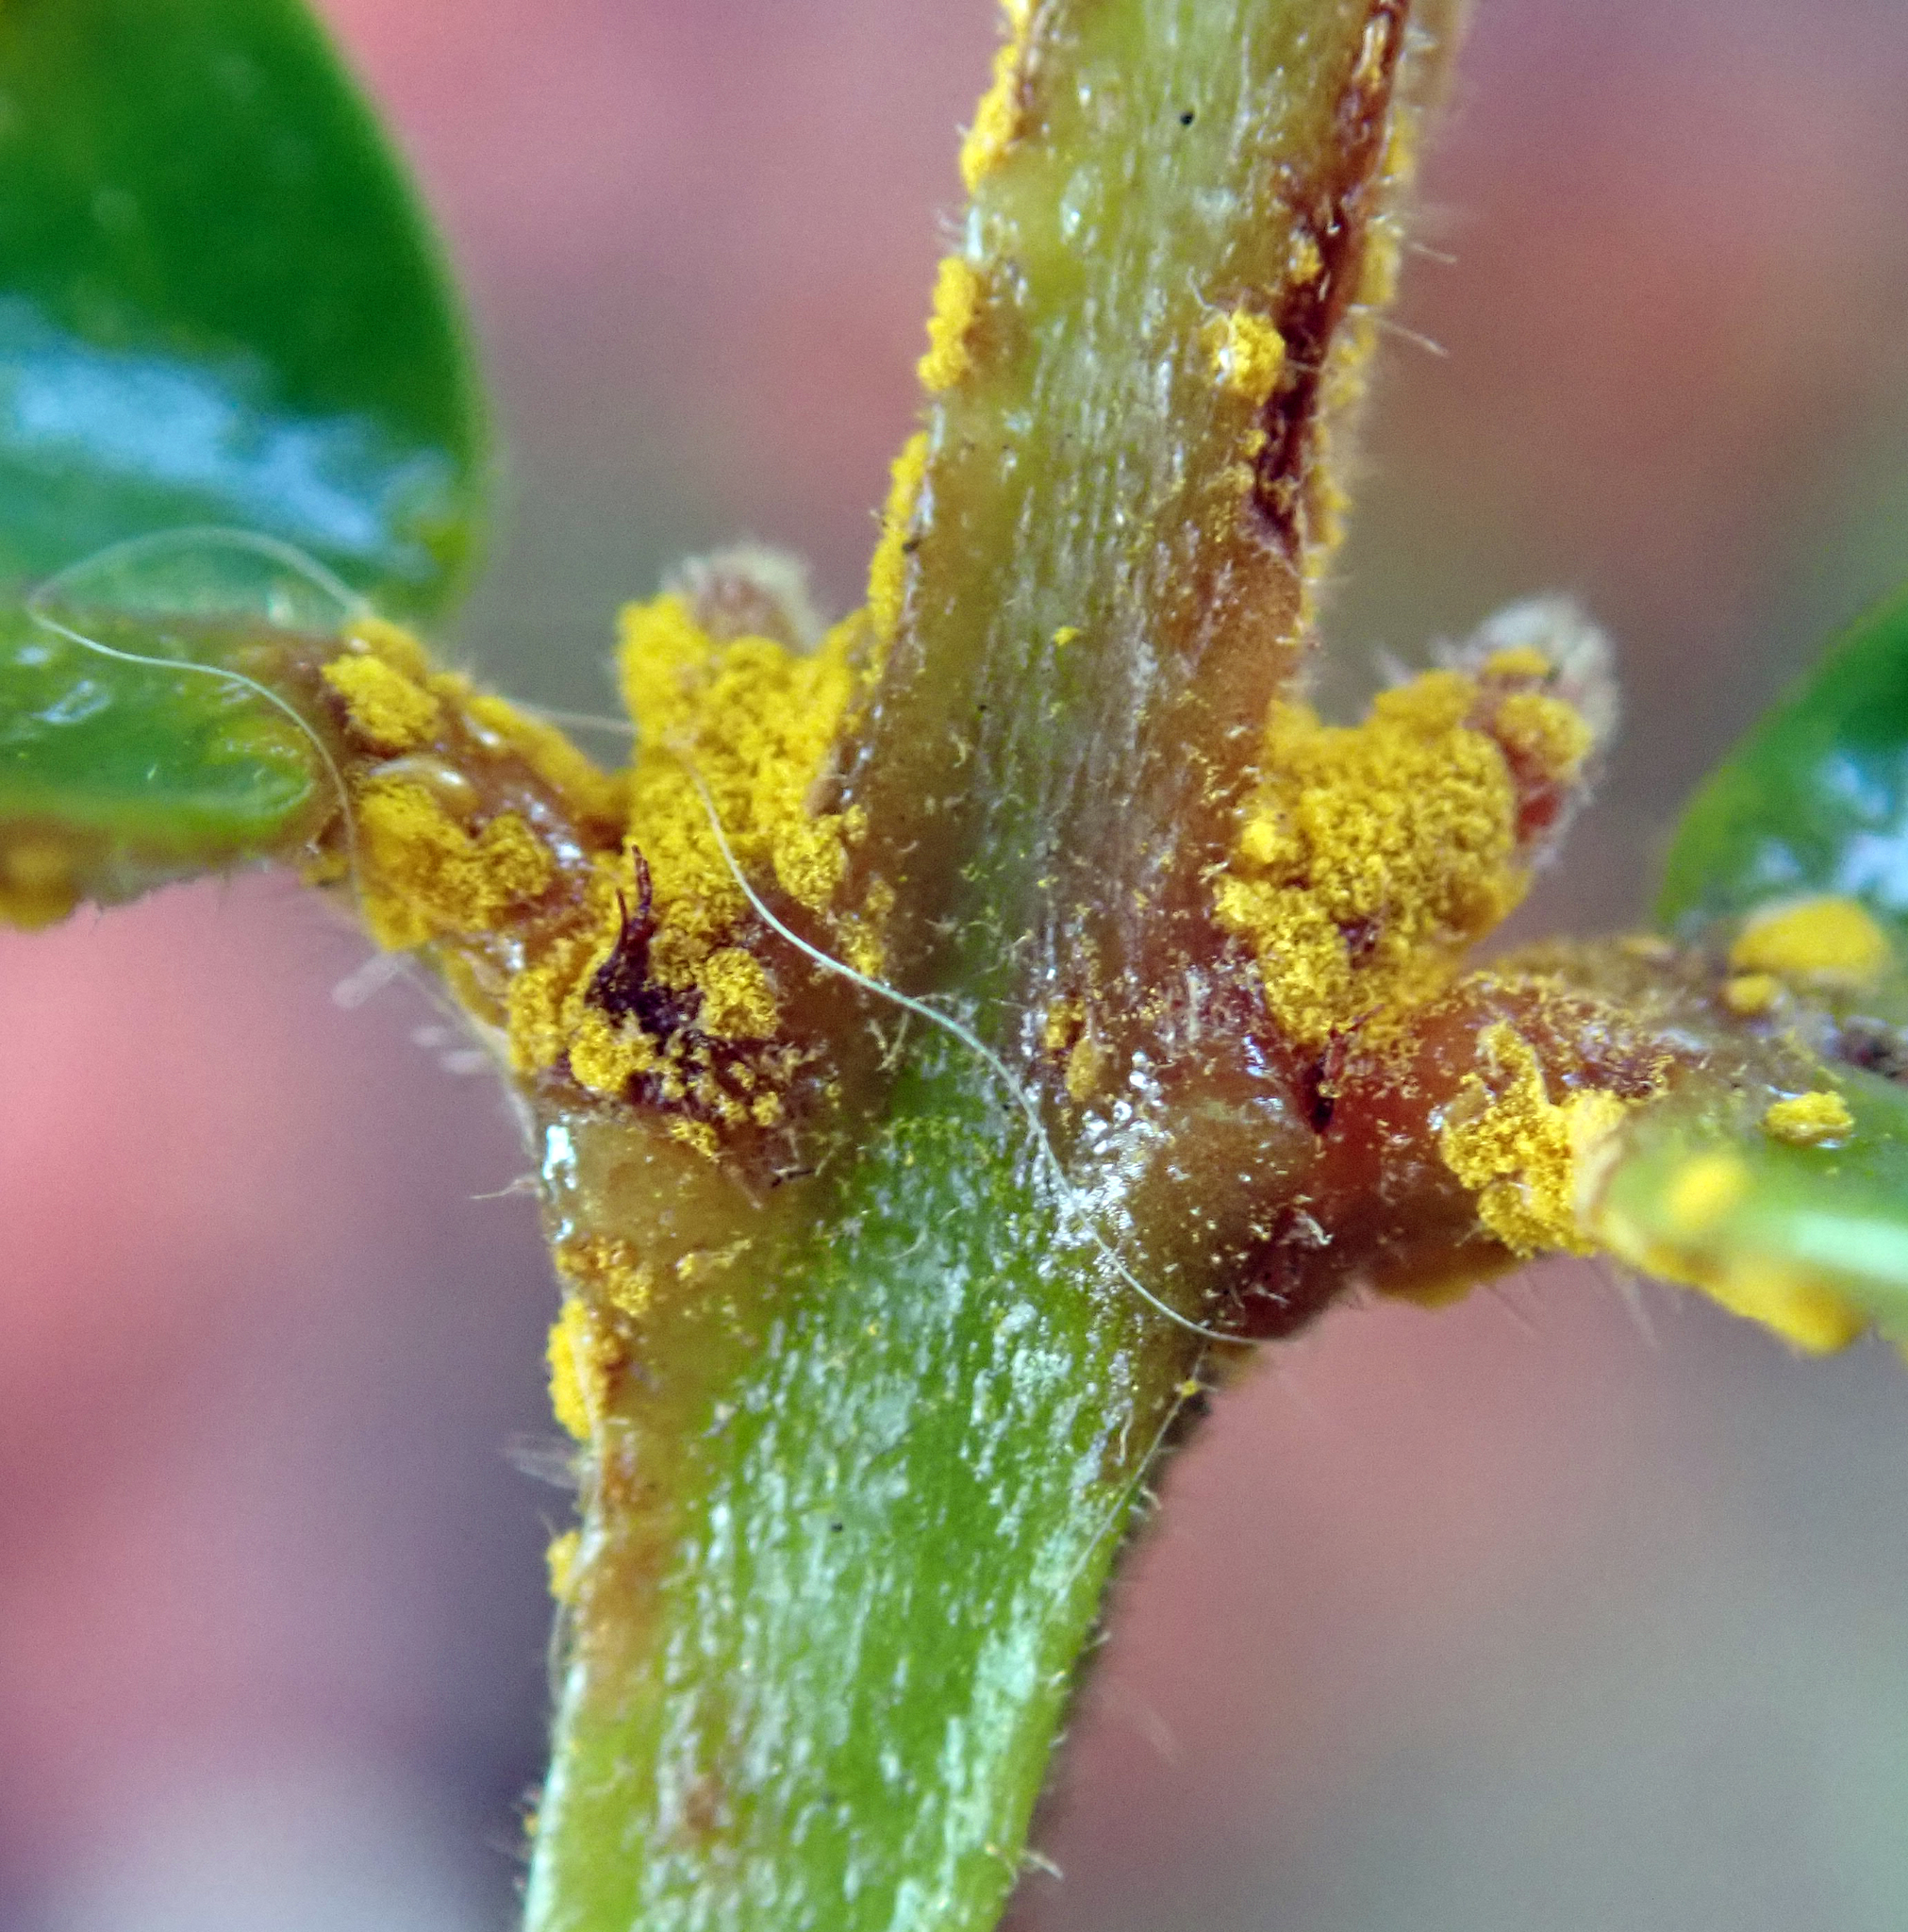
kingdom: Fungi
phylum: Basidiomycota
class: Pucciniomycetes
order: Pucciniales
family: Sphaerophragmiaceae
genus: Austropuccinia
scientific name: Austropuccinia psidii
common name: Myrtle rust
